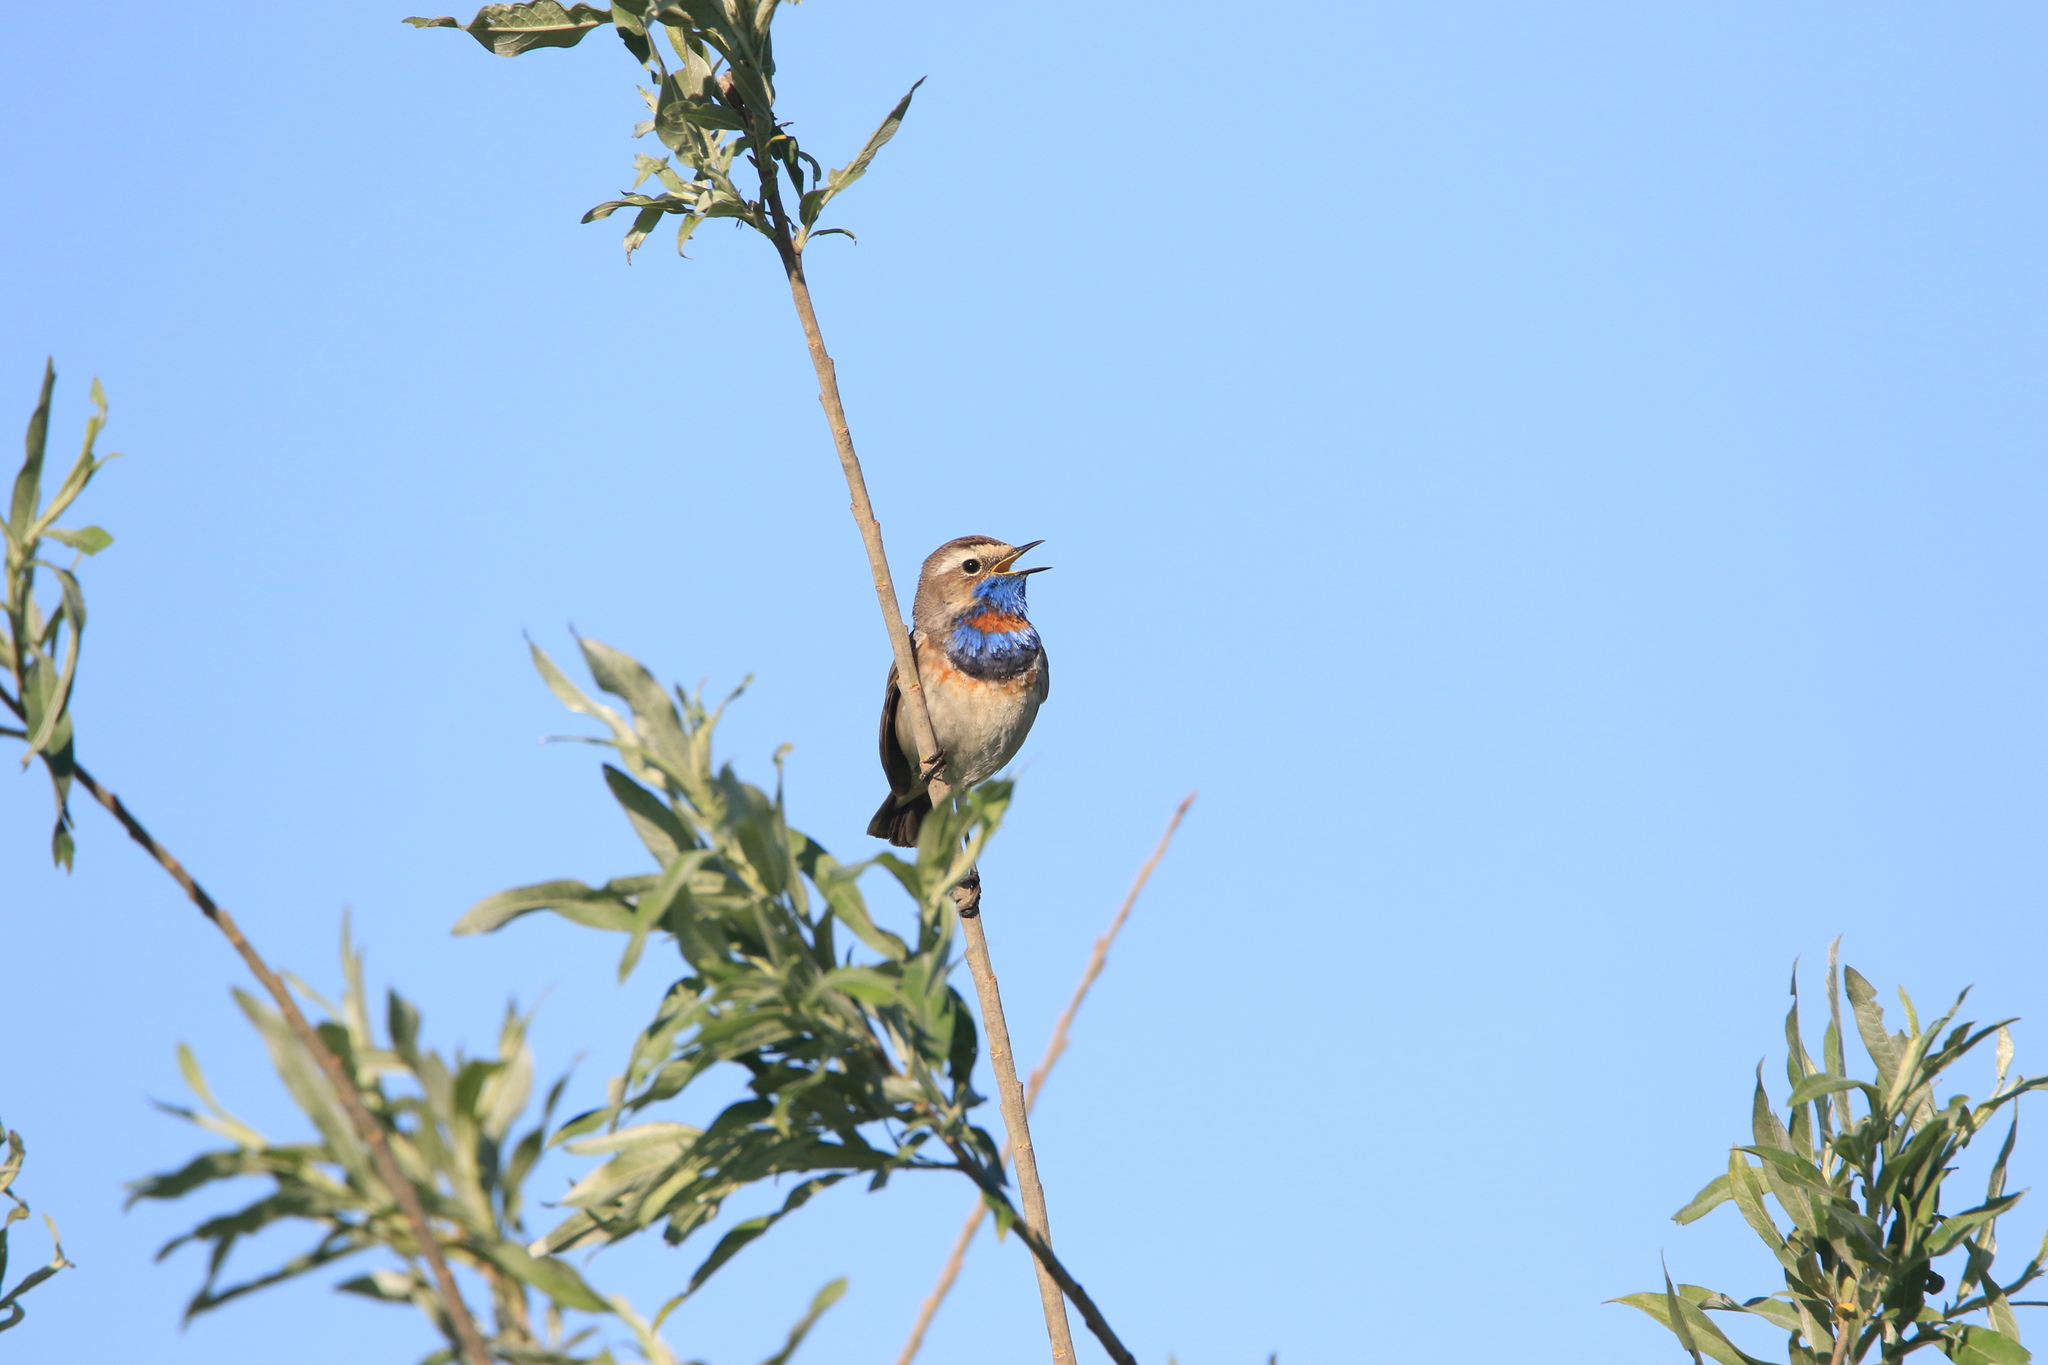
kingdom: Animalia
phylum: Chordata
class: Aves
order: Passeriformes
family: Muscicapidae
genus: Luscinia
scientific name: Luscinia svecica
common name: Bluethroat
